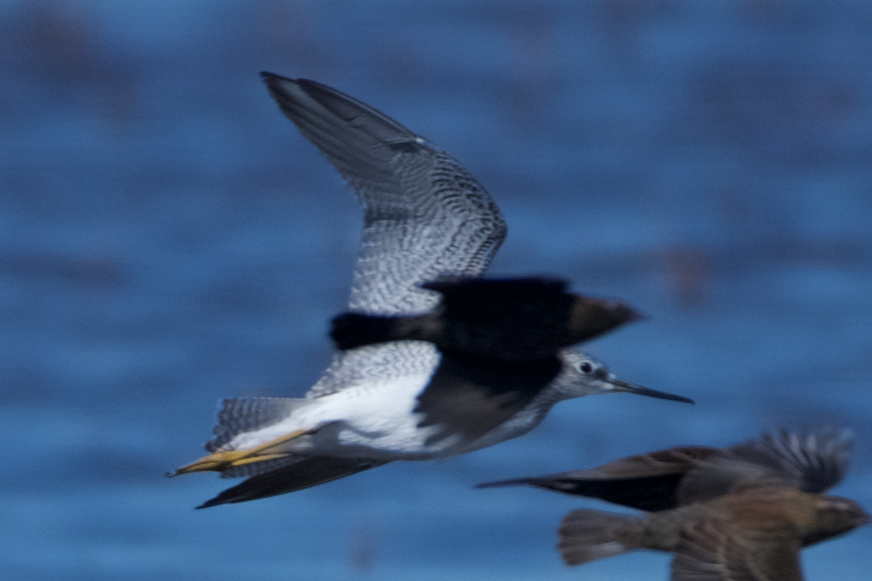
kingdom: Animalia
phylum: Chordata
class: Aves
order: Charadriiformes
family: Scolopacidae
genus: Tringa
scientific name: Tringa melanoleuca
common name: Greater yellowlegs
